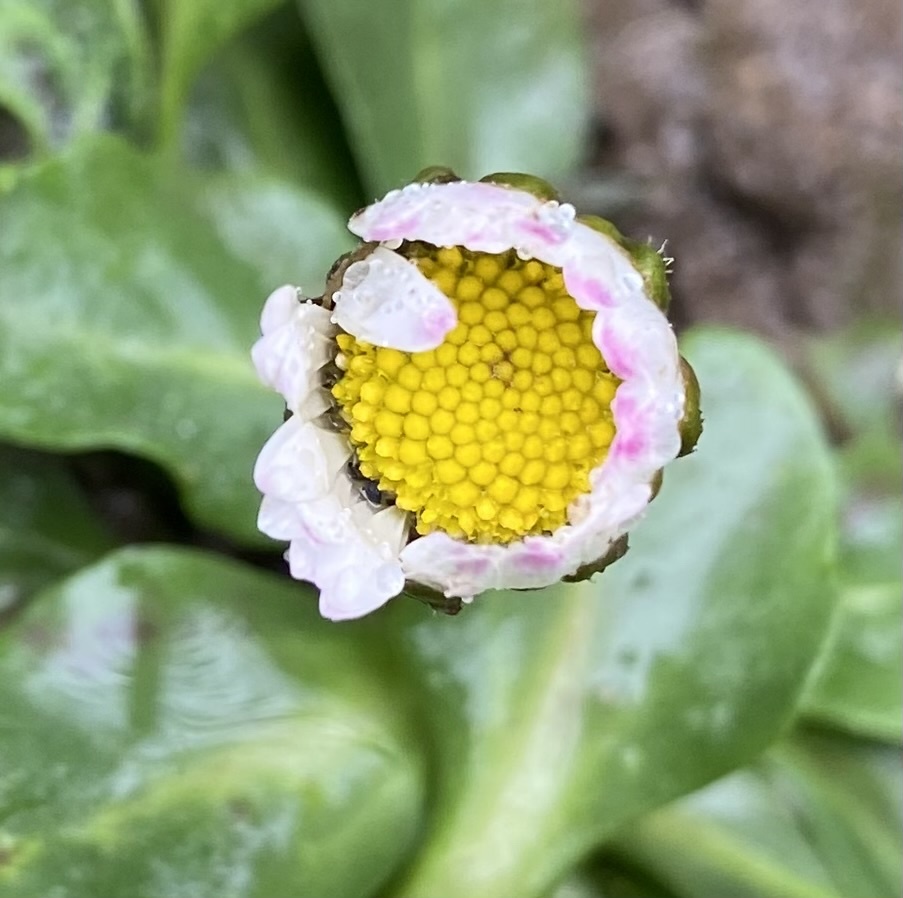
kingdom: Plantae
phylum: Tracheophyta
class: Magnoliopsida
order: Asterales
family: Asteraceae
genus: Bellis
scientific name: Bellis perennis
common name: Lawndaisy
